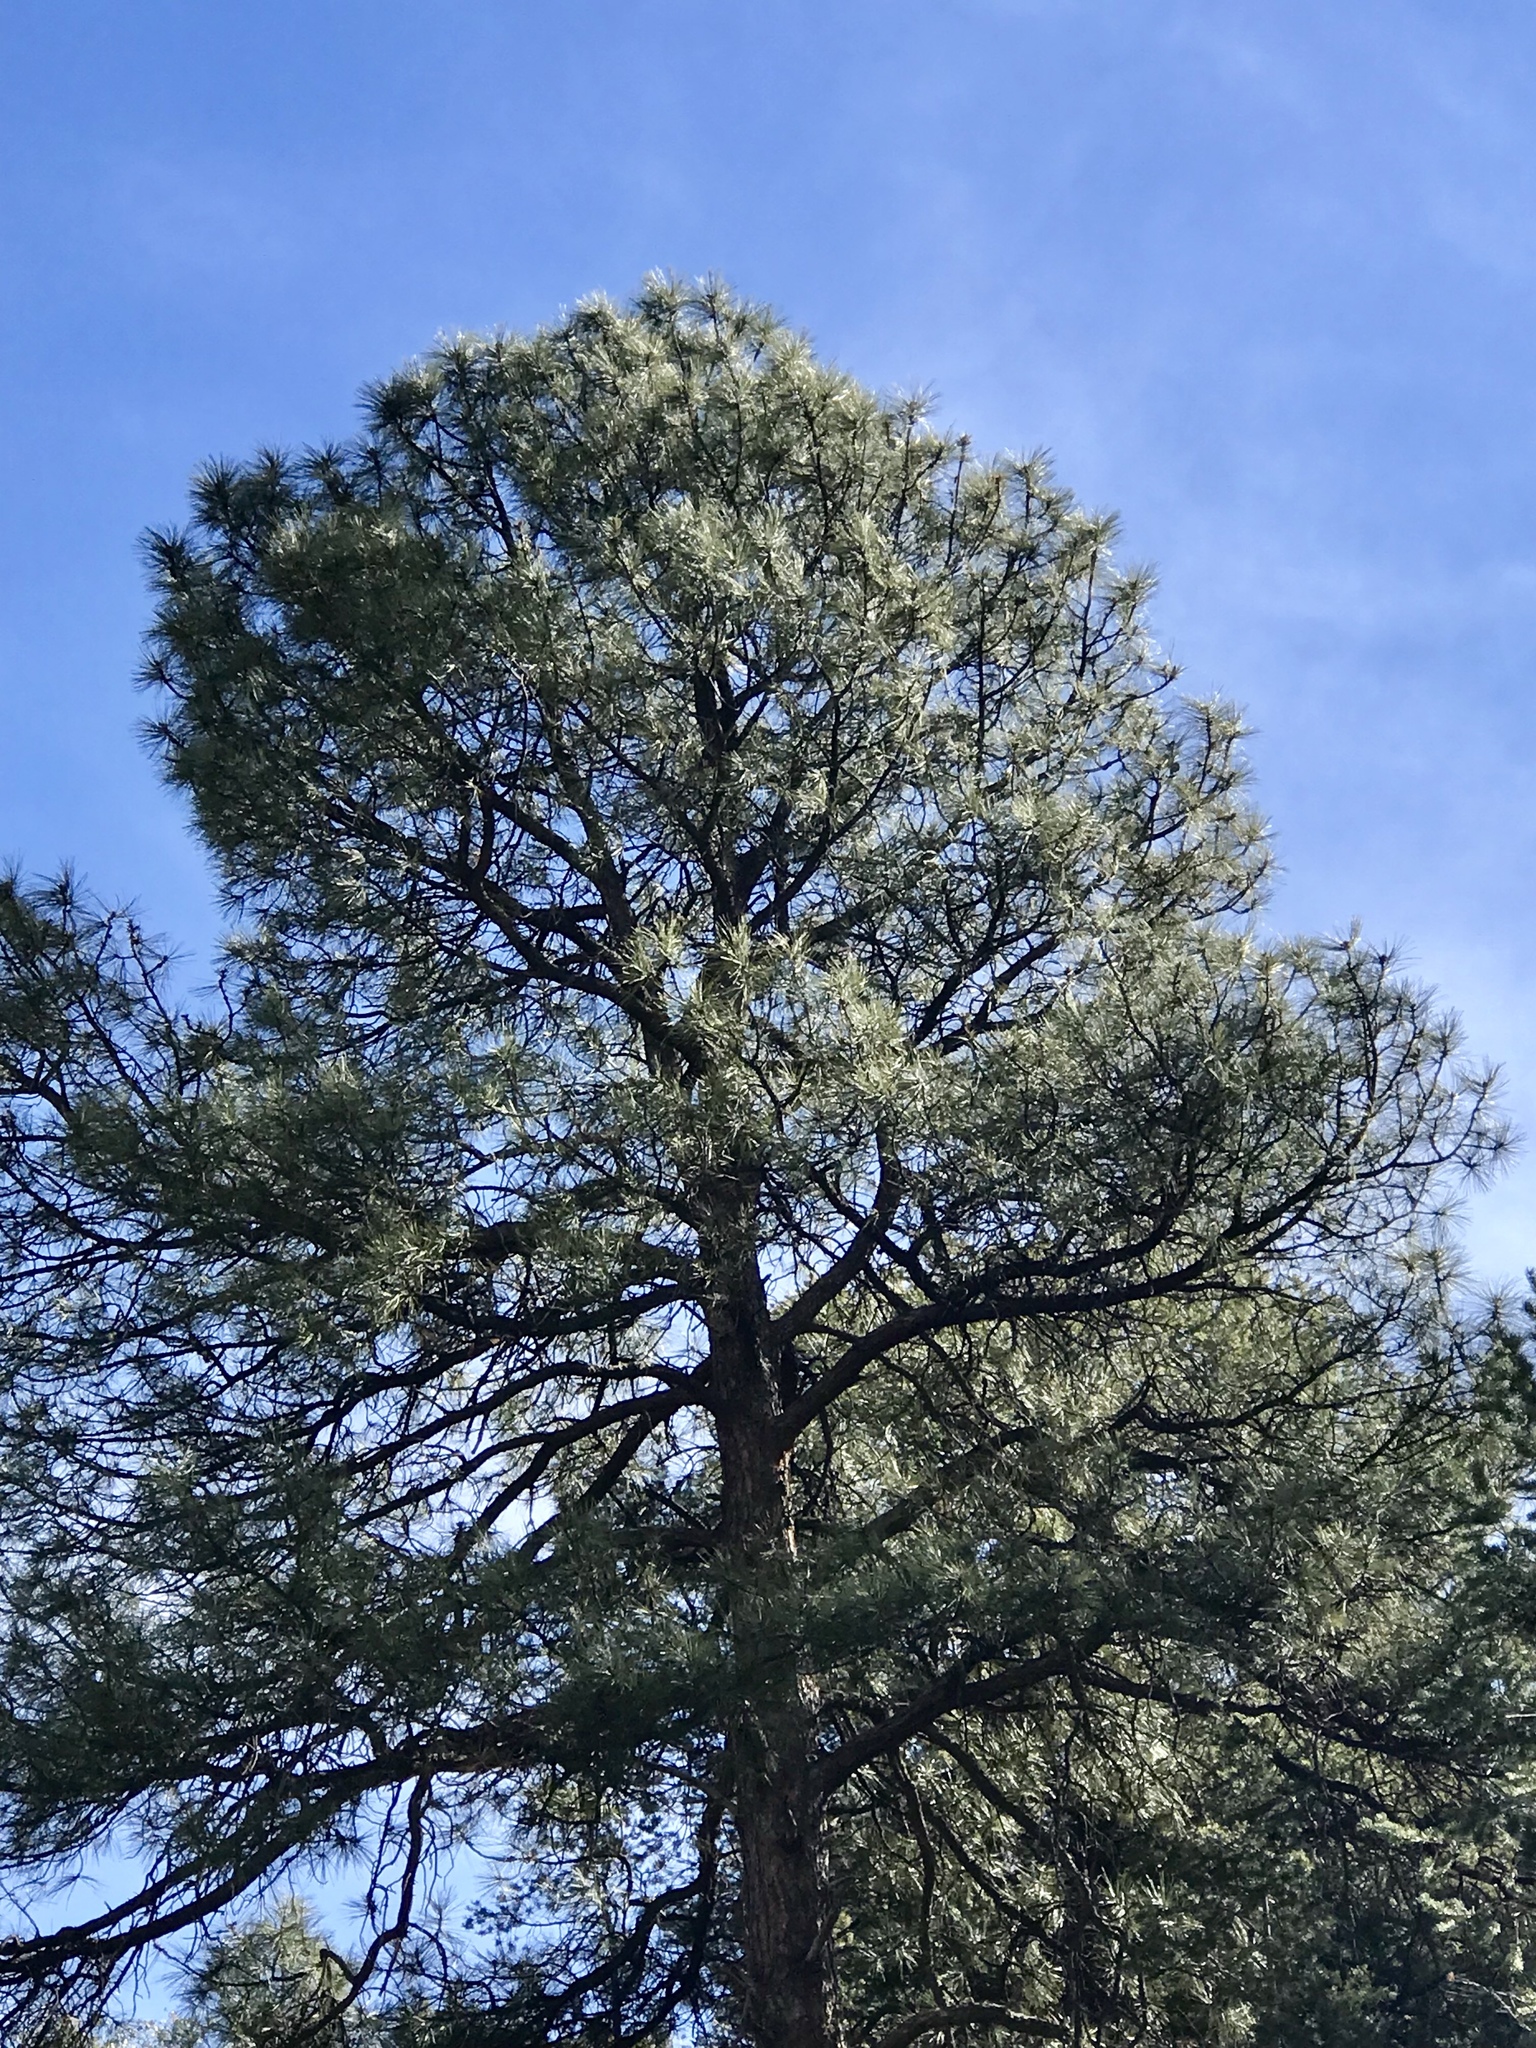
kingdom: Plantae
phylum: Tracheophyta
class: Pinopsida
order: Pinales
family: Pinaceae
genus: Pinus
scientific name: Pinus ponderosa
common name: Western yellow-pine
